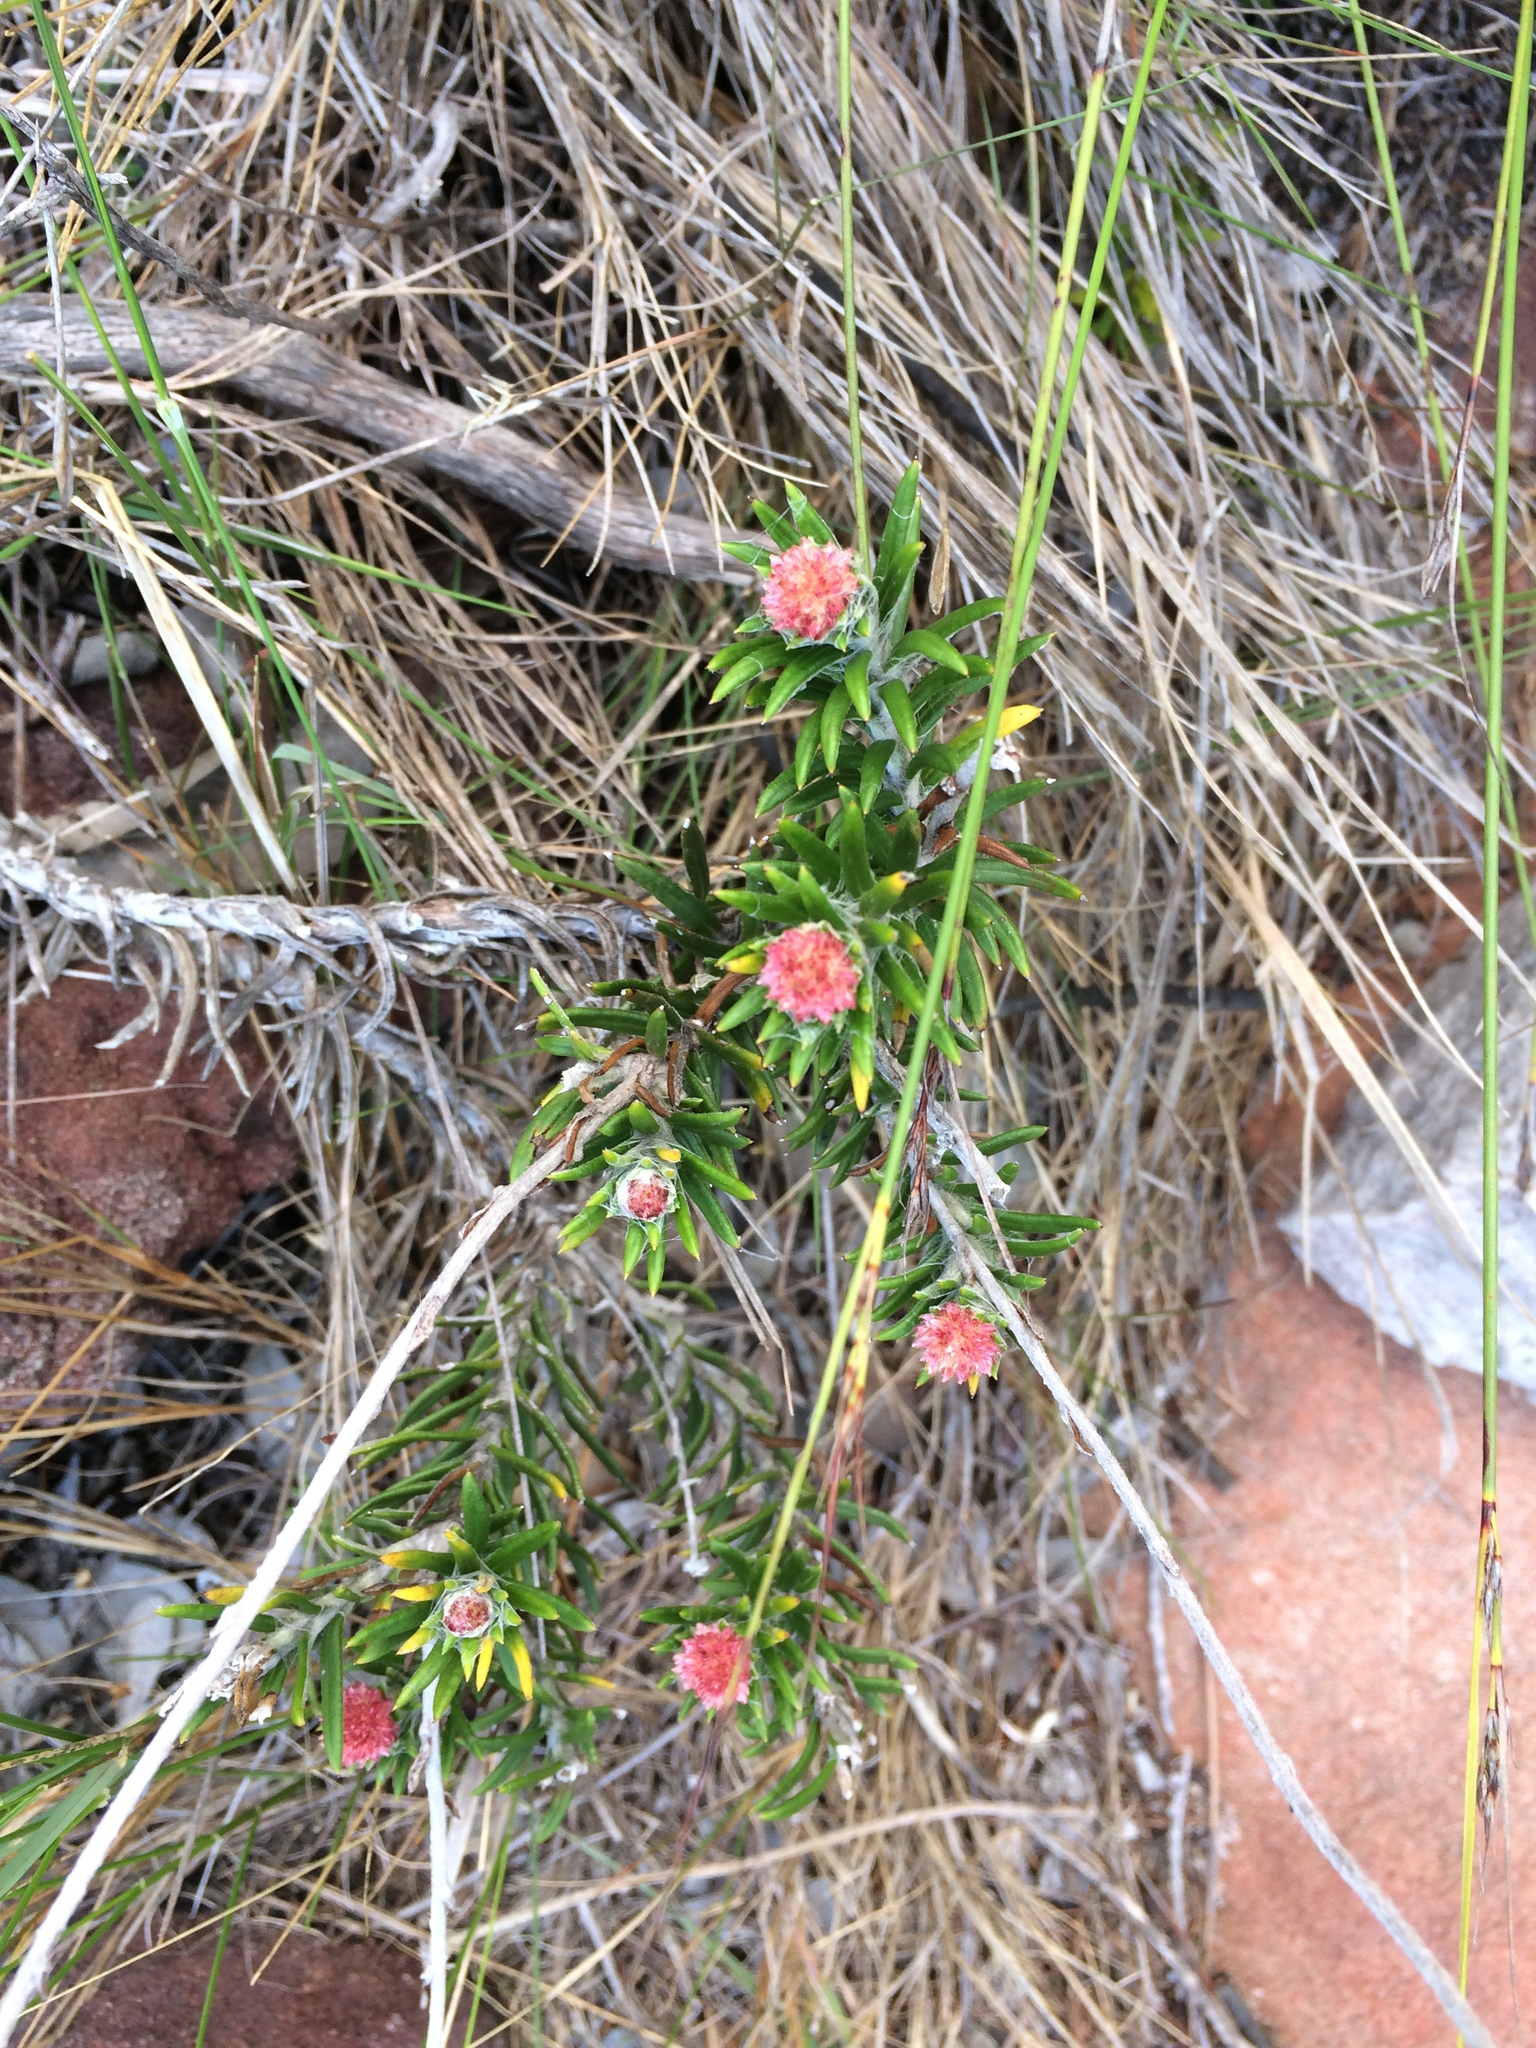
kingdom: Plantae
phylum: Tracheophyta
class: Magnoliopsida
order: Asterales
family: Asteraceae
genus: Anaxeton
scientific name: Anaxeton laeve
